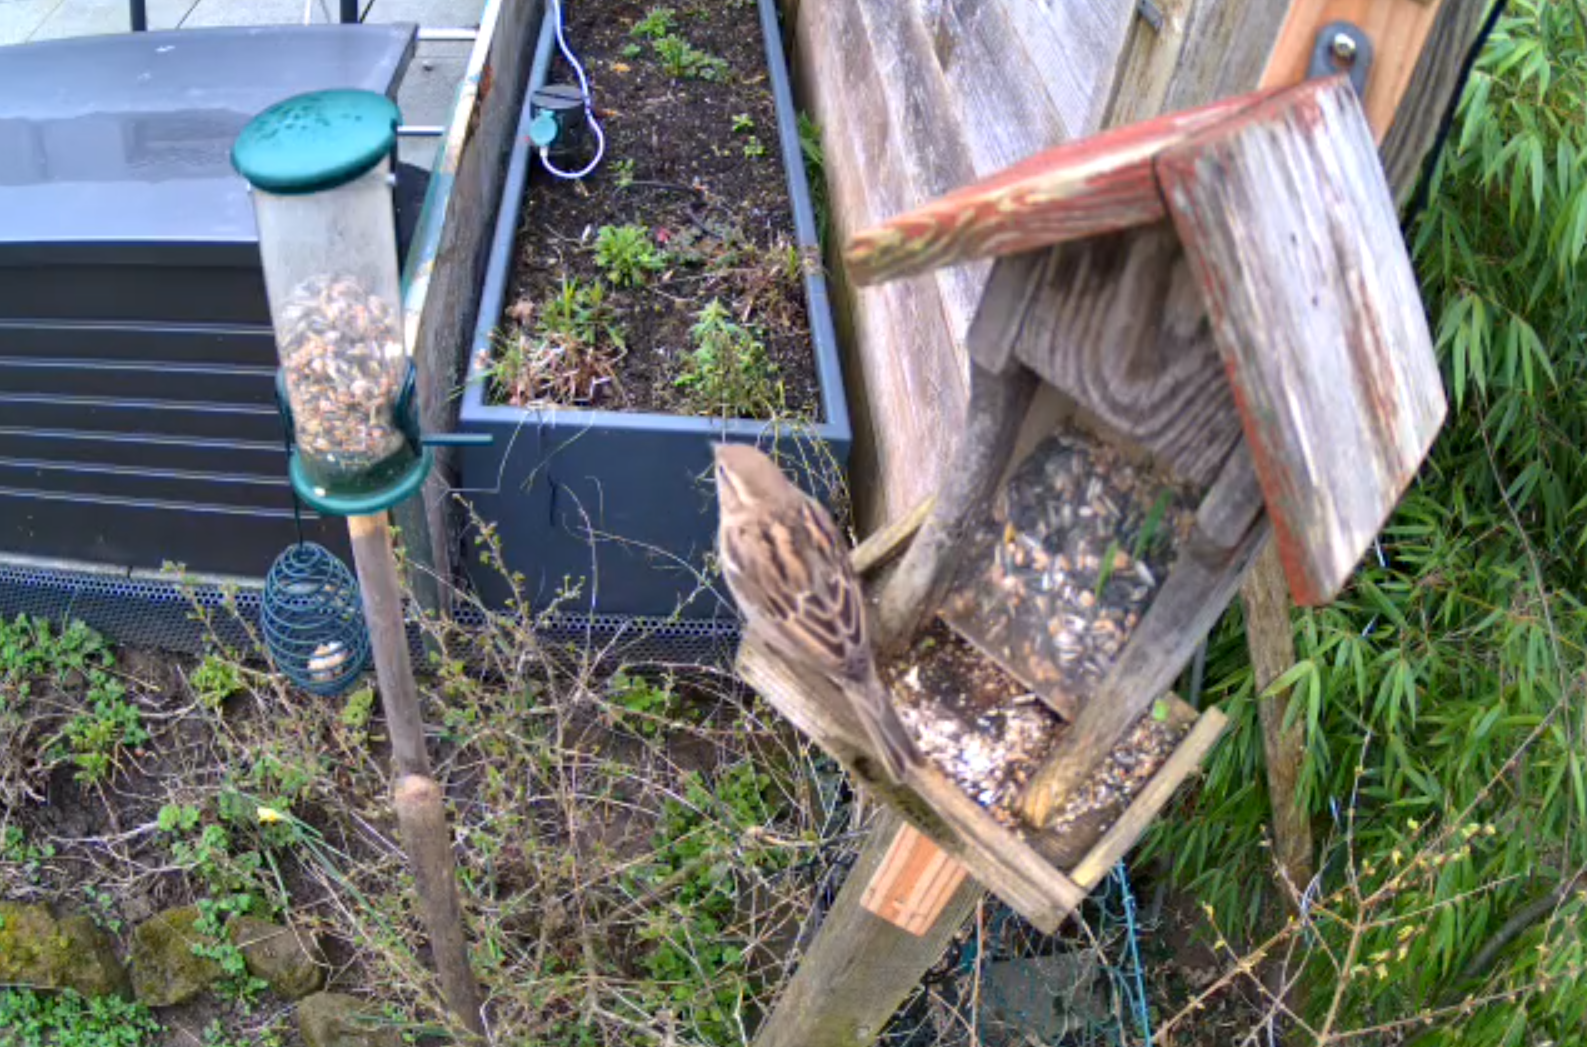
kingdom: Animalia
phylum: Chordata
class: Aves
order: Passeriformes
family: Passeridae
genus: Passer
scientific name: Passer domesticus
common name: House sparrow
